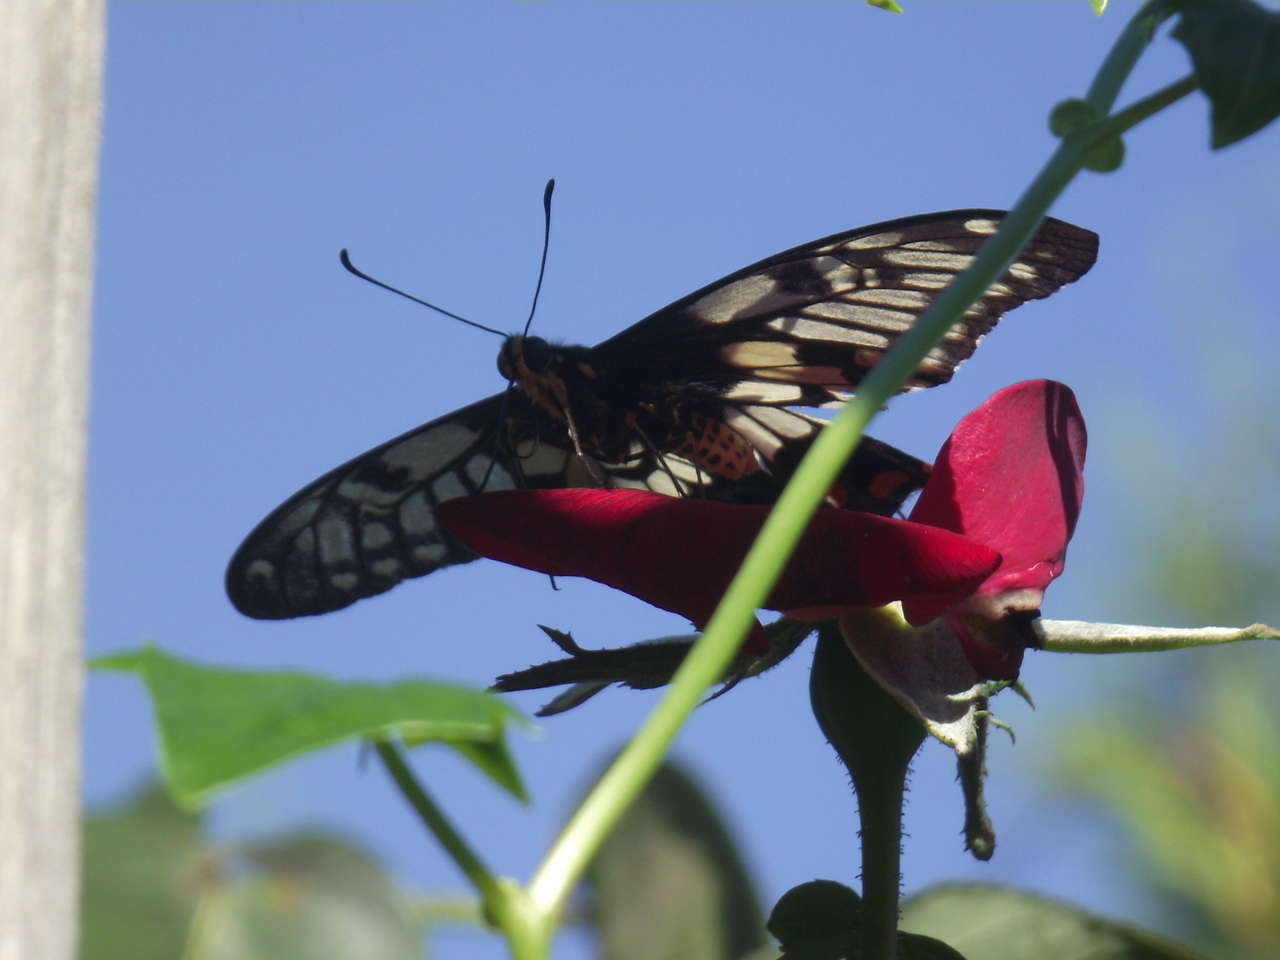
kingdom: Animalia
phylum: Arthropoda
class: Insecta
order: Lepidoptera
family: Papilionidae
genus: Papilio
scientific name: Papilio anactus
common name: Dingy swallowtail
